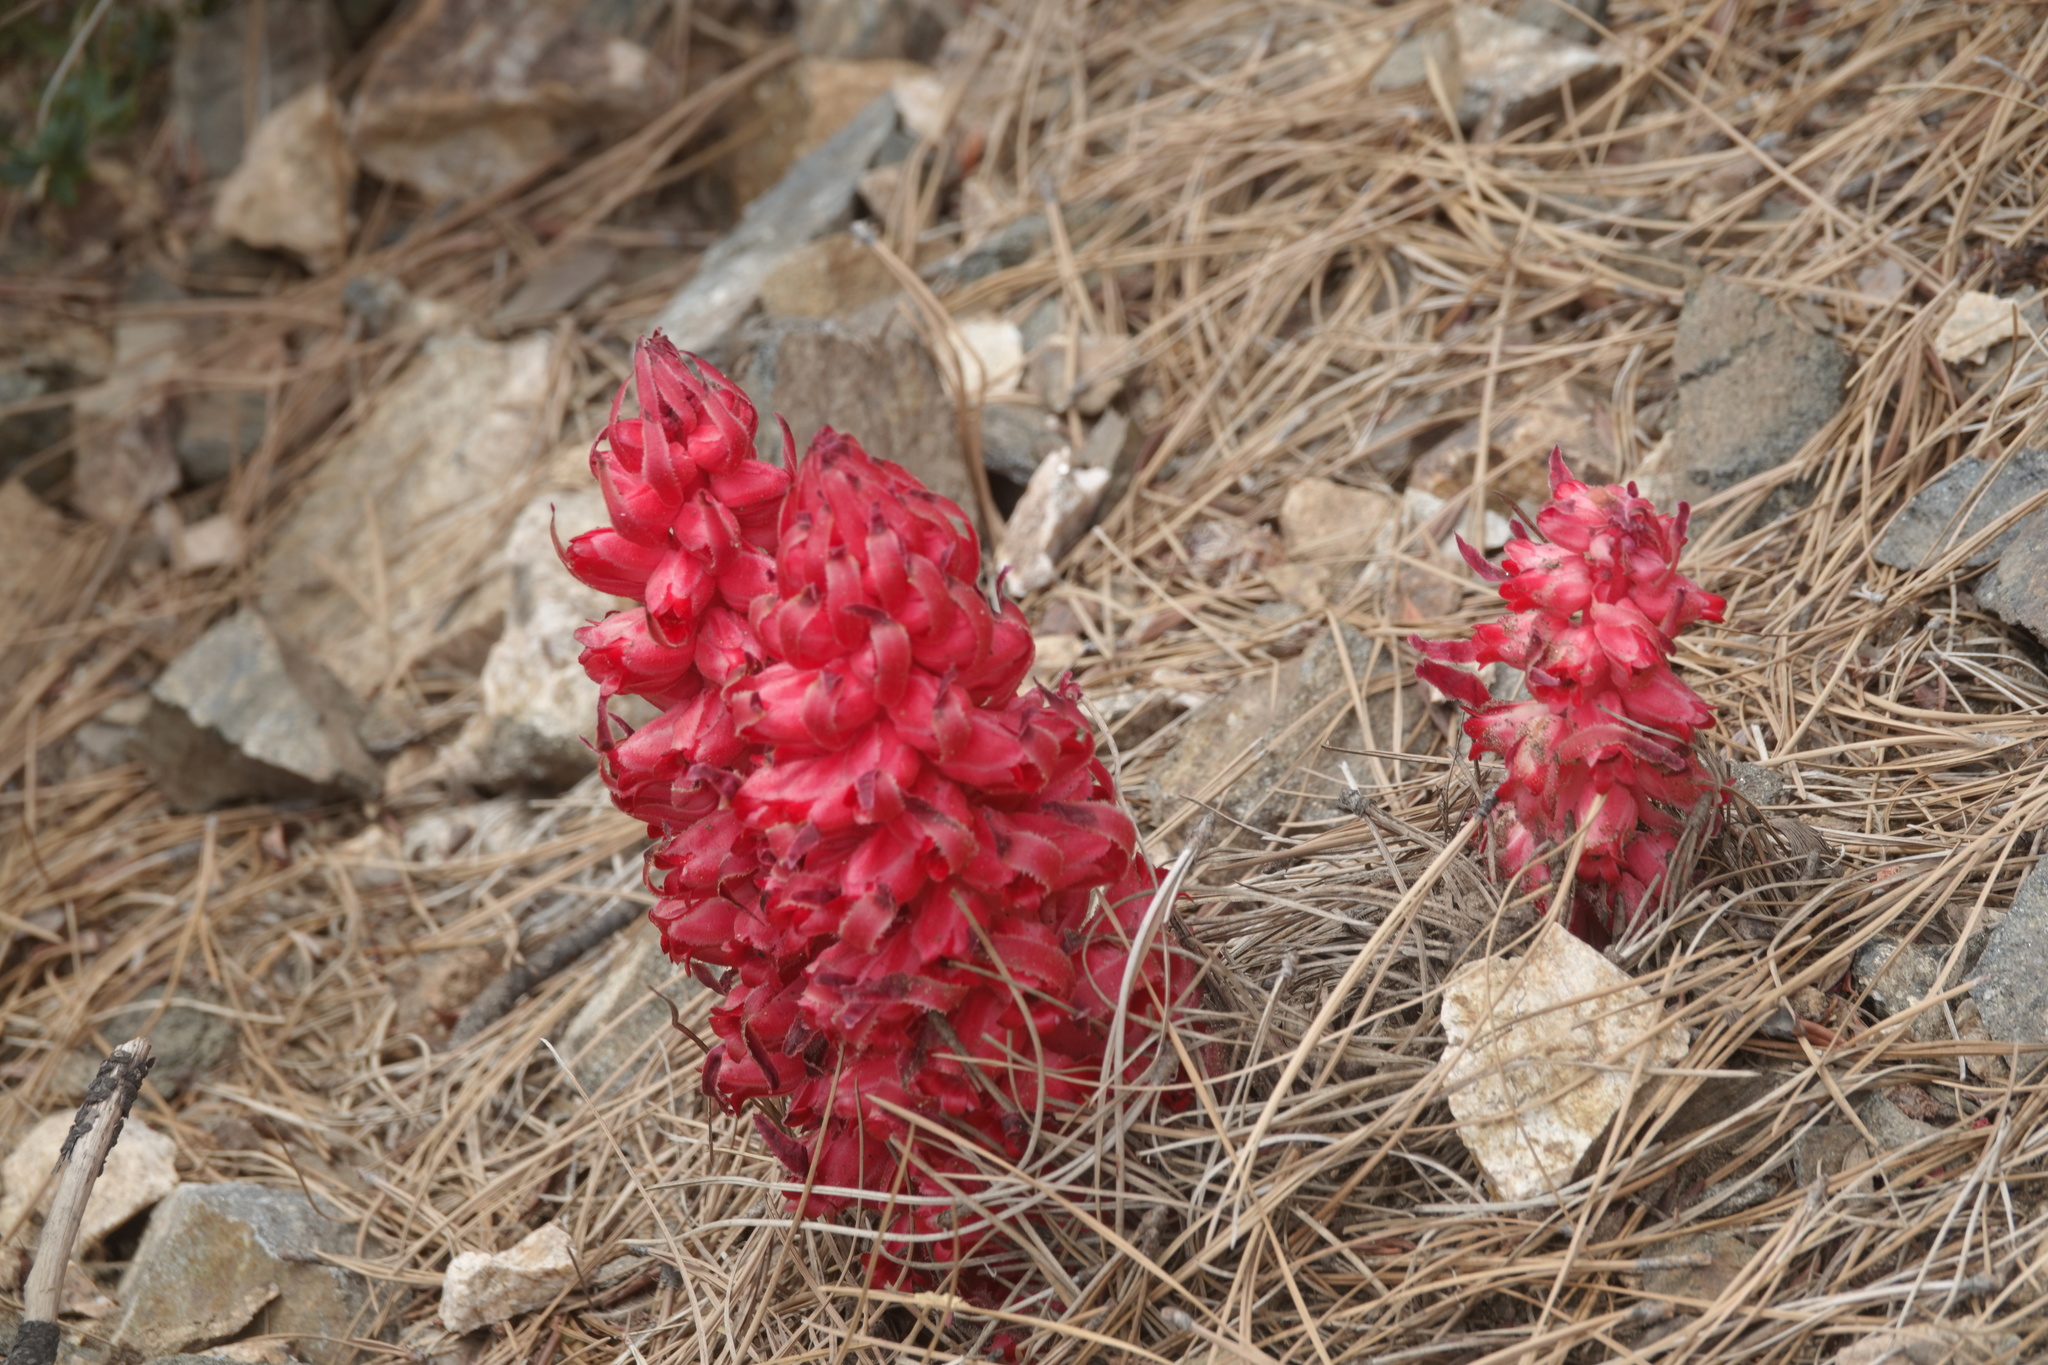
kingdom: Plantae
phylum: Tracheophyta
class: Magnoliopsida
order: Ericales
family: Ericaceae
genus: Sarcodes
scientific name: Sarcodes sanguinea
